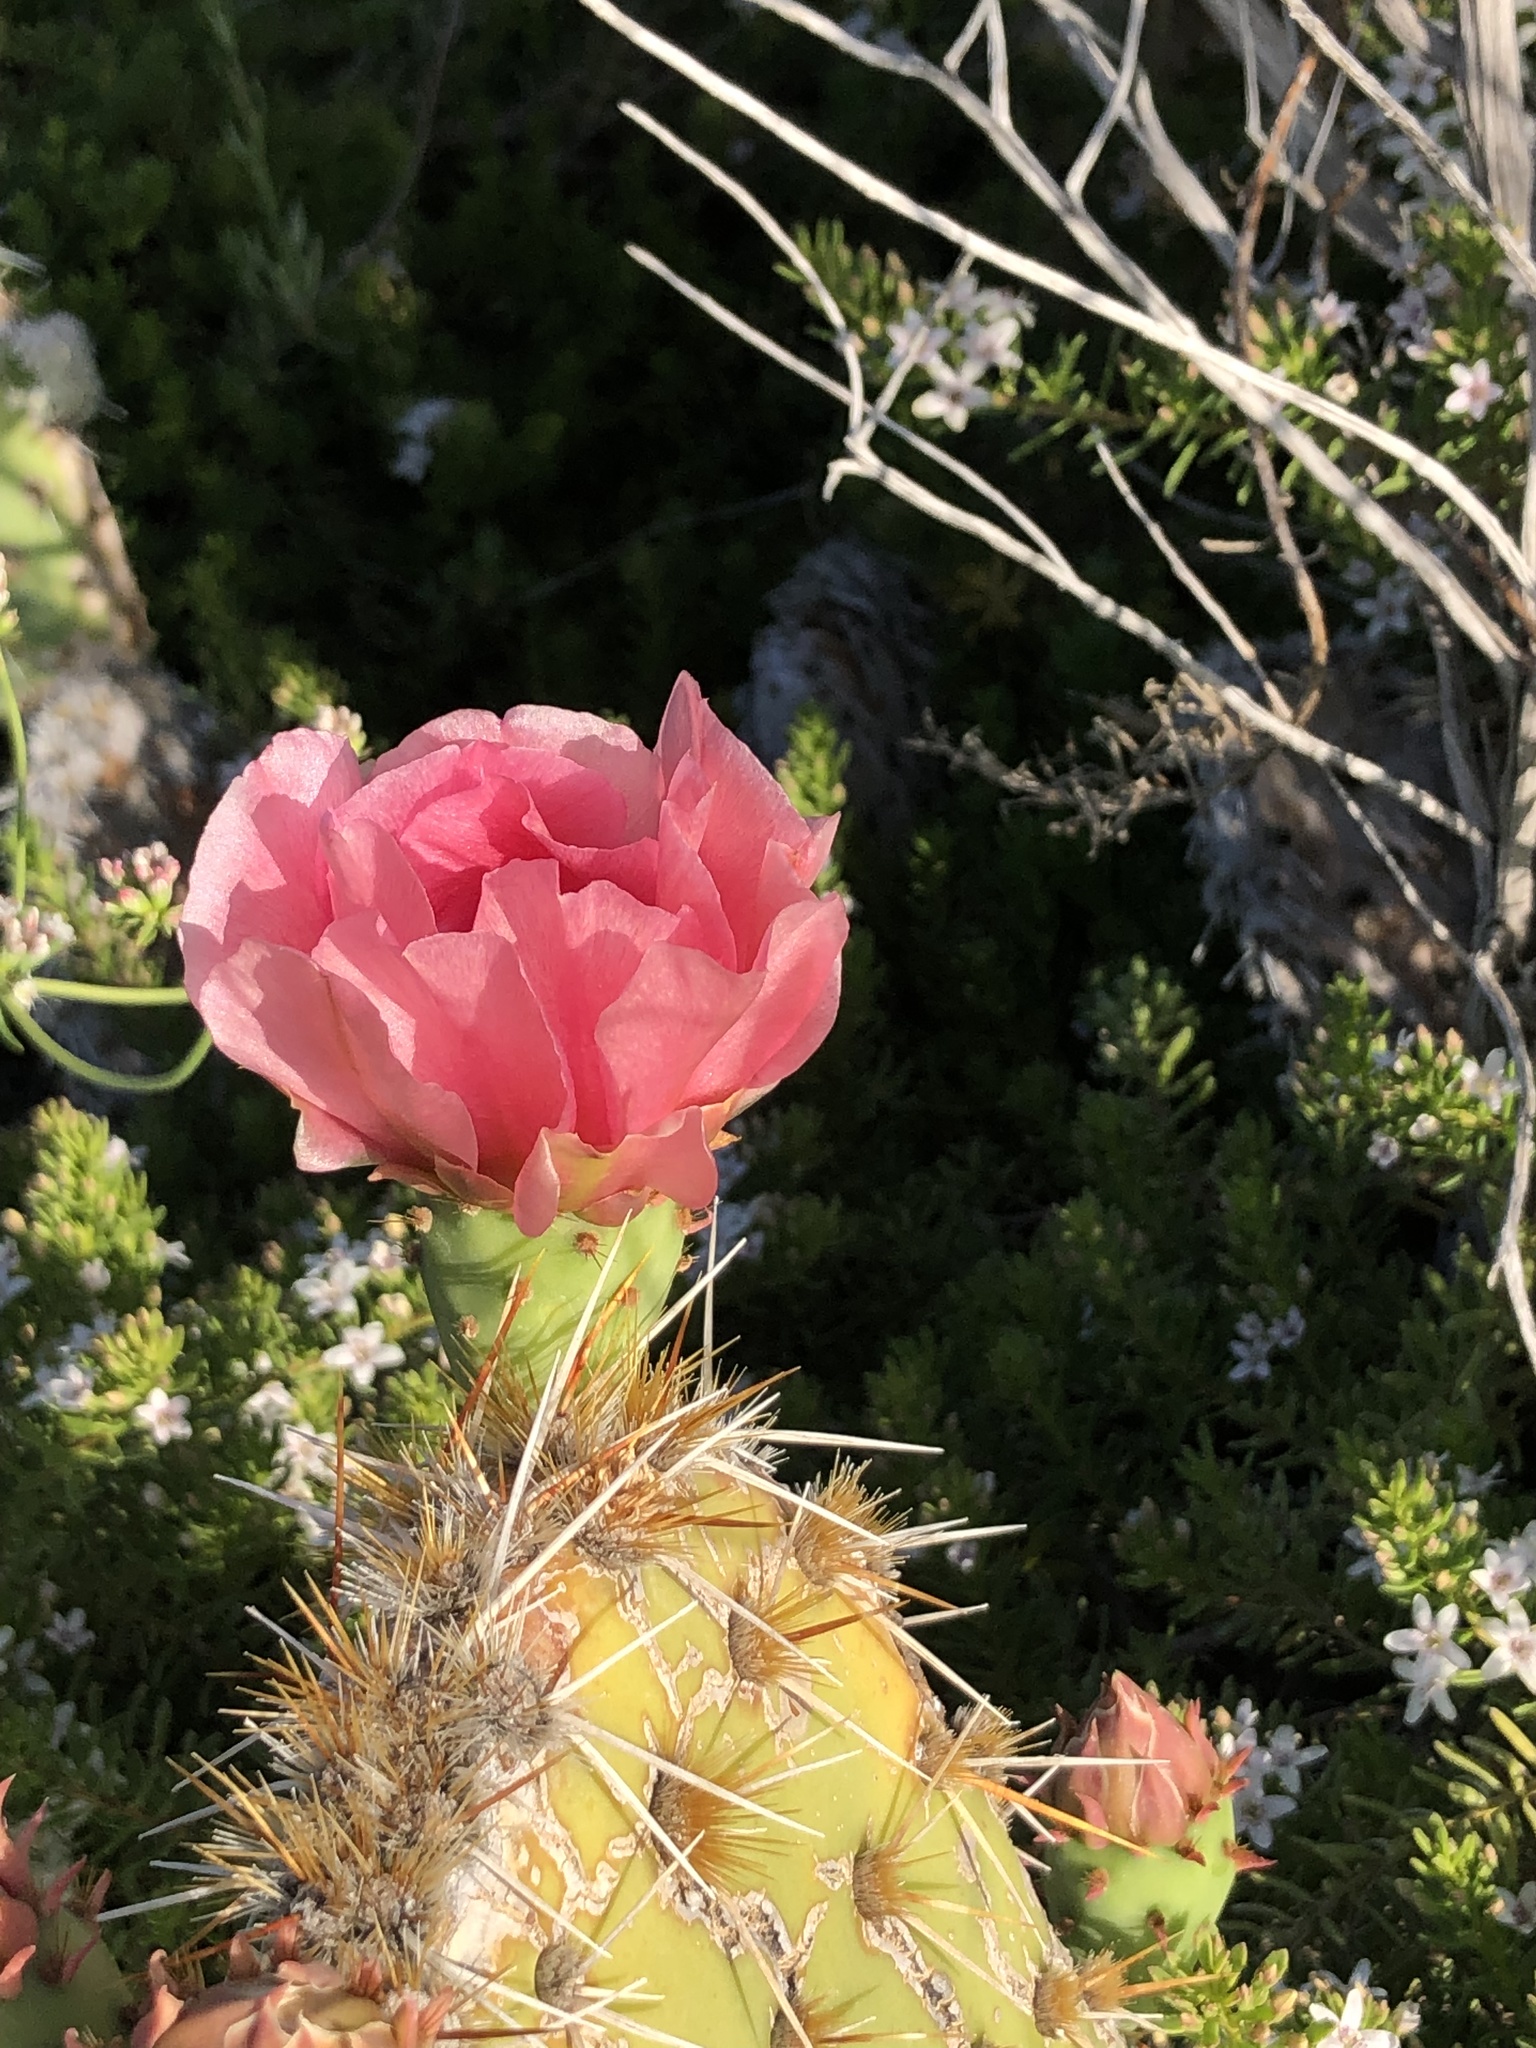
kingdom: Plantae
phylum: Tracheophyta
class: Magnoliopsida
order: Caryophyllales
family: Cactaceae
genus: Opuntia
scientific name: Opuntia vaseyi
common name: Apricot prickly-pear
